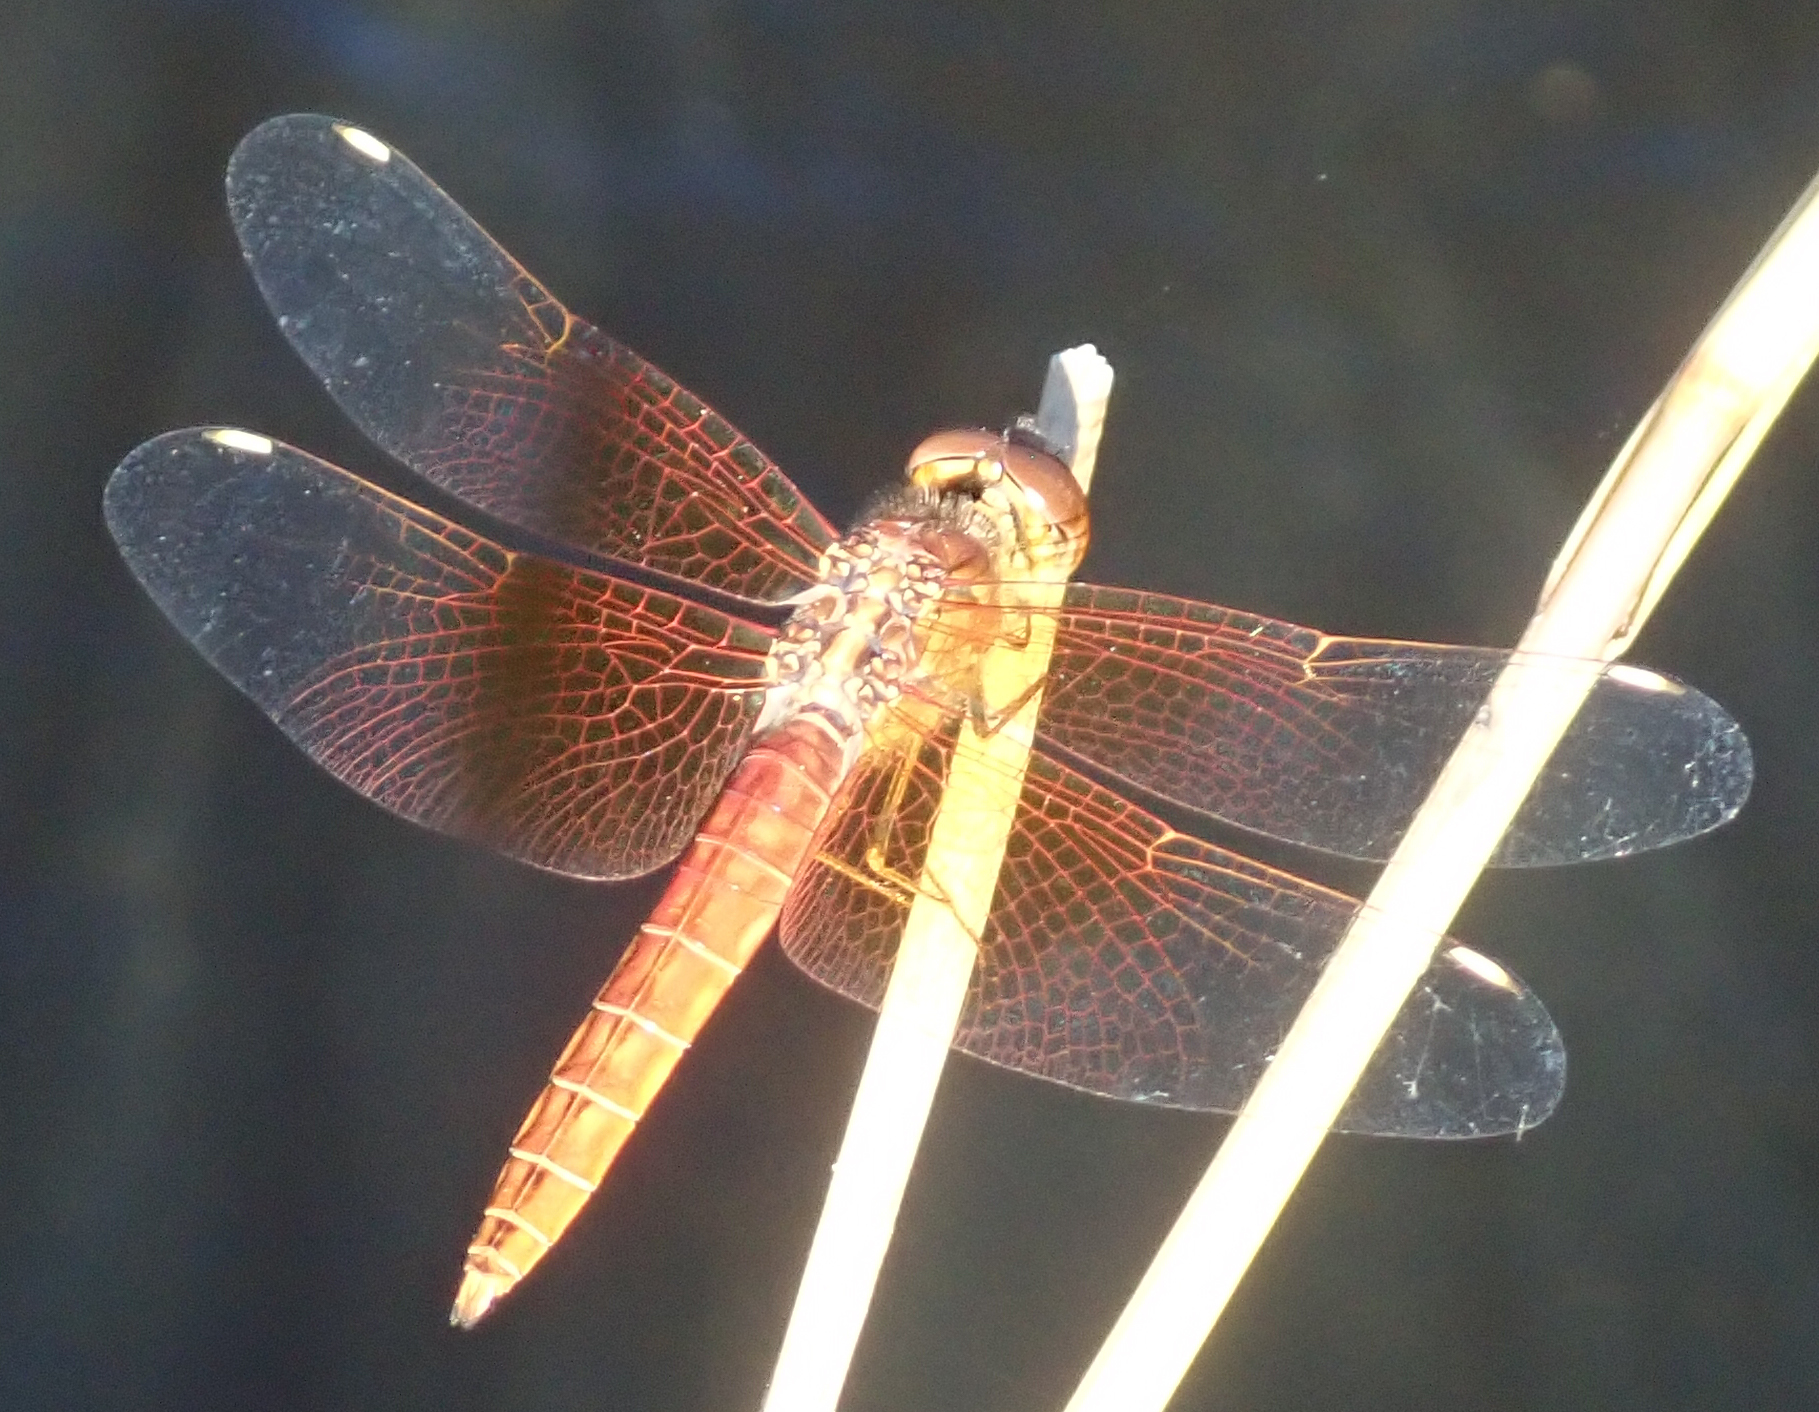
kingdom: Animalia
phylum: Arthropoda
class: Insecta
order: Odonata
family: Libellulidae
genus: Brachythemis
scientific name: Brachythemis lacustris
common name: Red groundling
